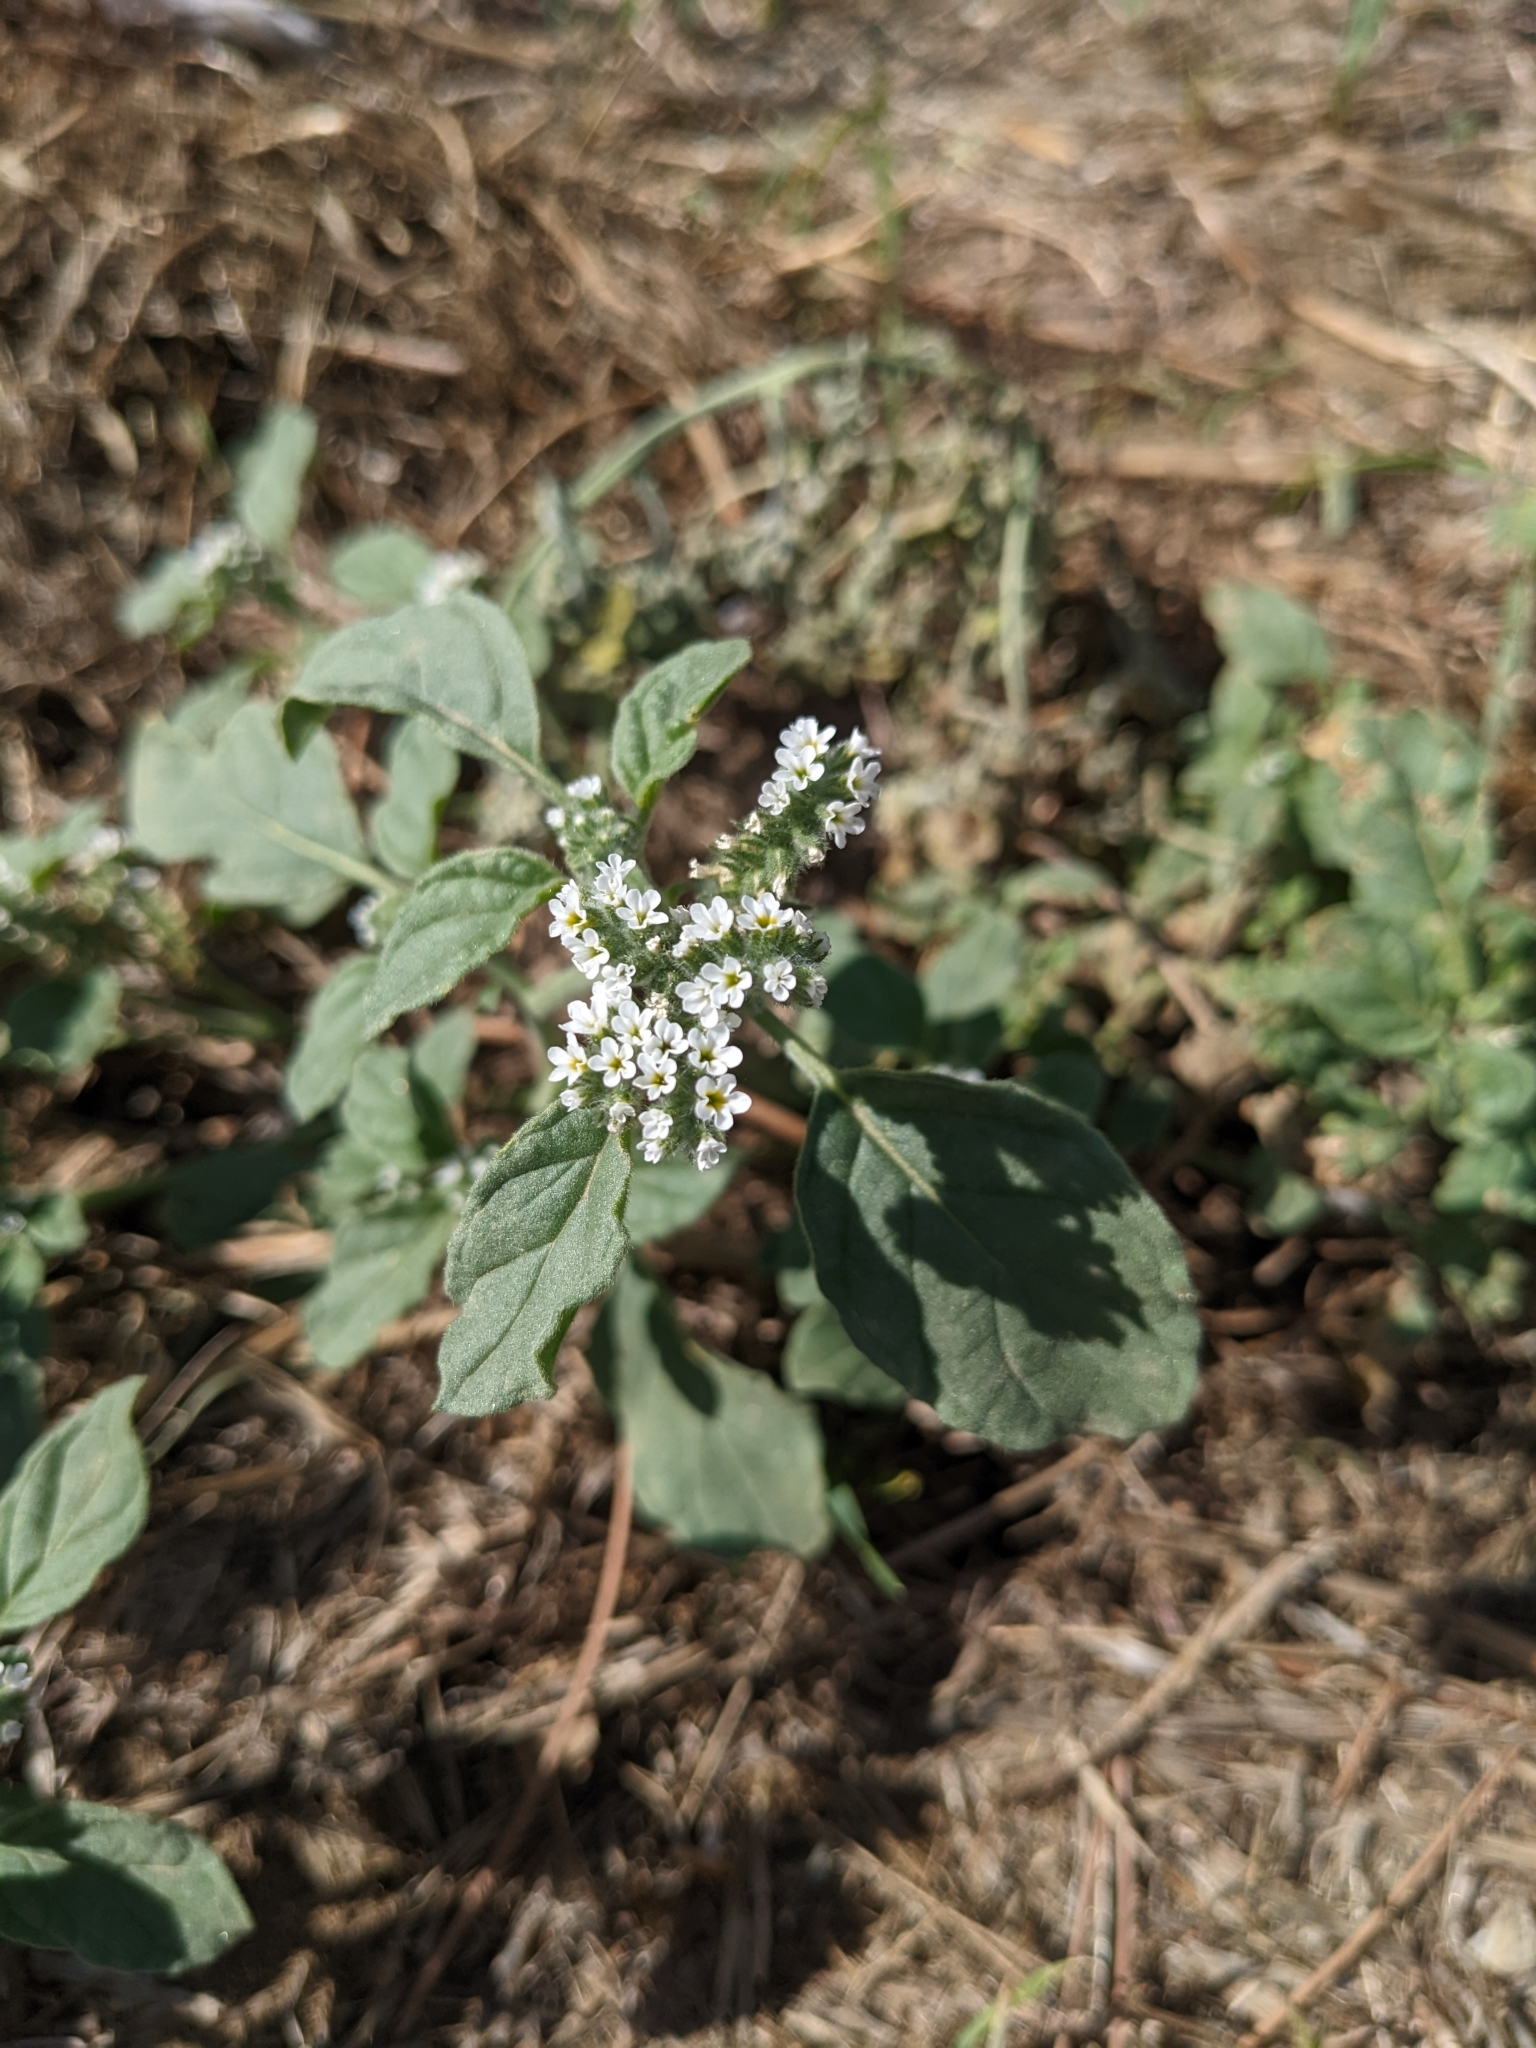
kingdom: Plantae
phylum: Tracheophyta
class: Magnoliopsida
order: Boraginales
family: Heliotropiaceae
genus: Heliotropium
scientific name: Heliotropium europaeum
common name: European heliotrope
